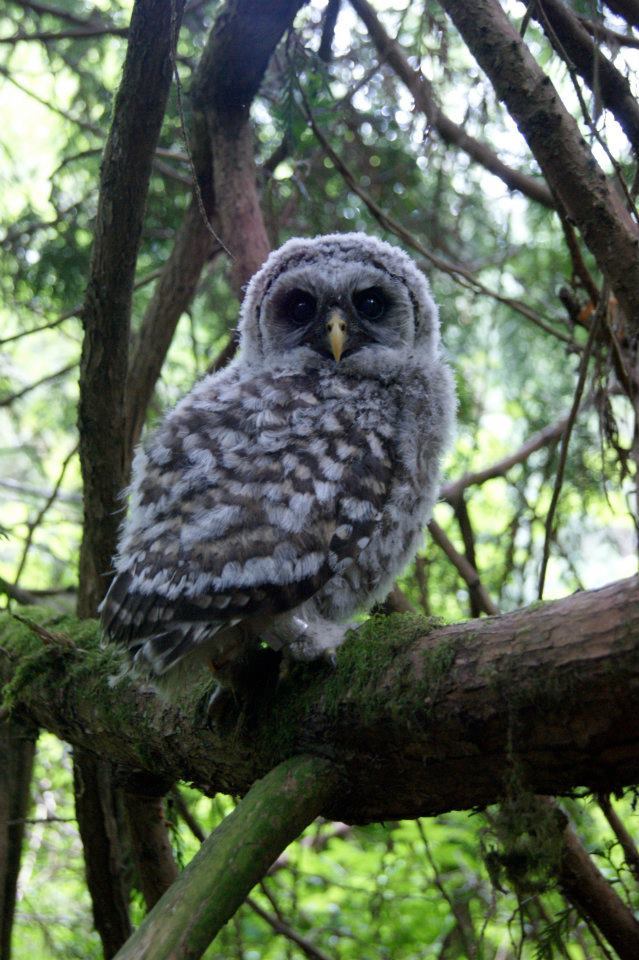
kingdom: Animalia
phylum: Chordata
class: Aves
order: Strigiformes
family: Strigidae
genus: Strix
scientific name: Strix varia
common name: Barred owl
